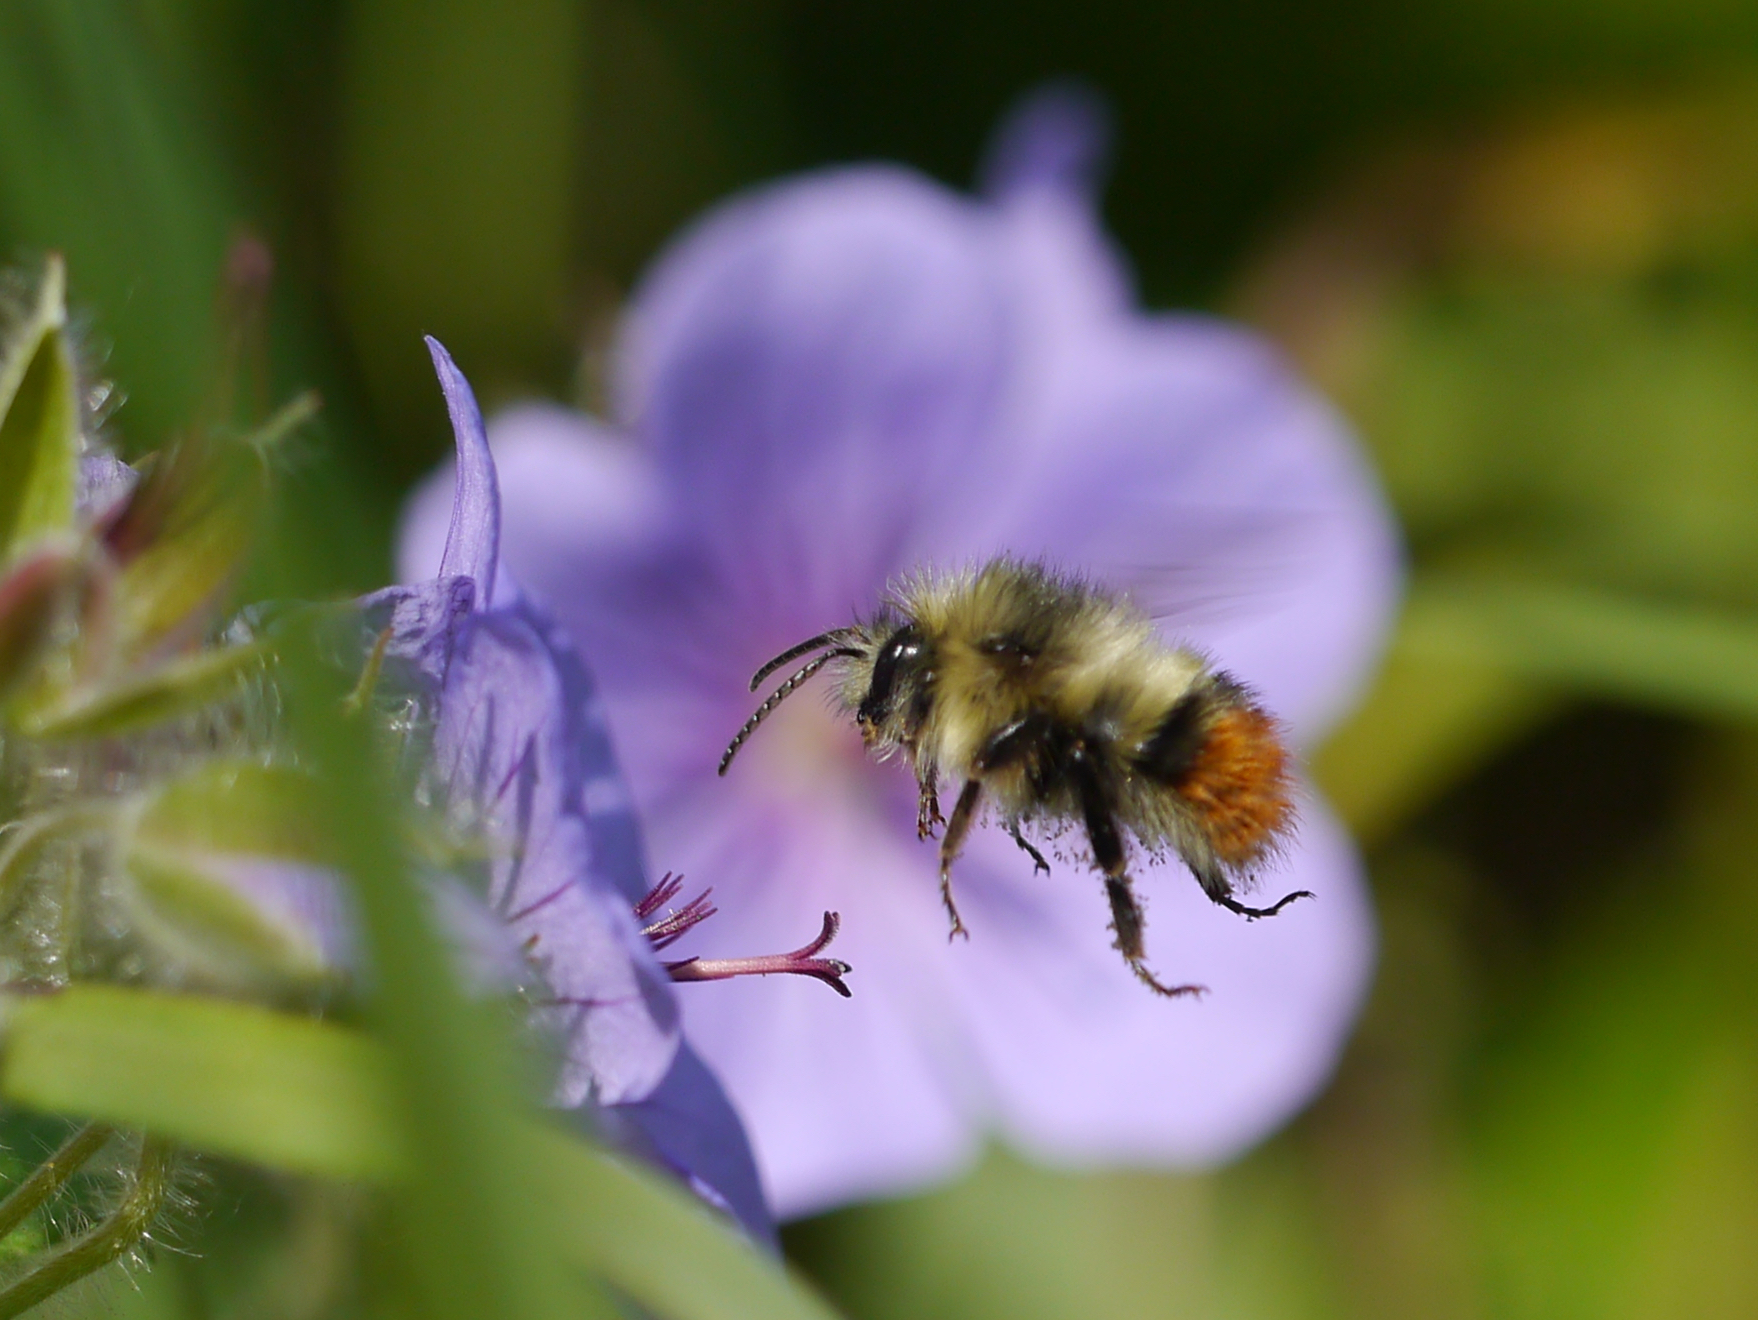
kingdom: Animalia
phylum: Arthropoda
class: Insecta
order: Hymenoptera
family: Apidae
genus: Bombus
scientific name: Bombus mixtus
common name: Fuzzy-horned bumble bee
